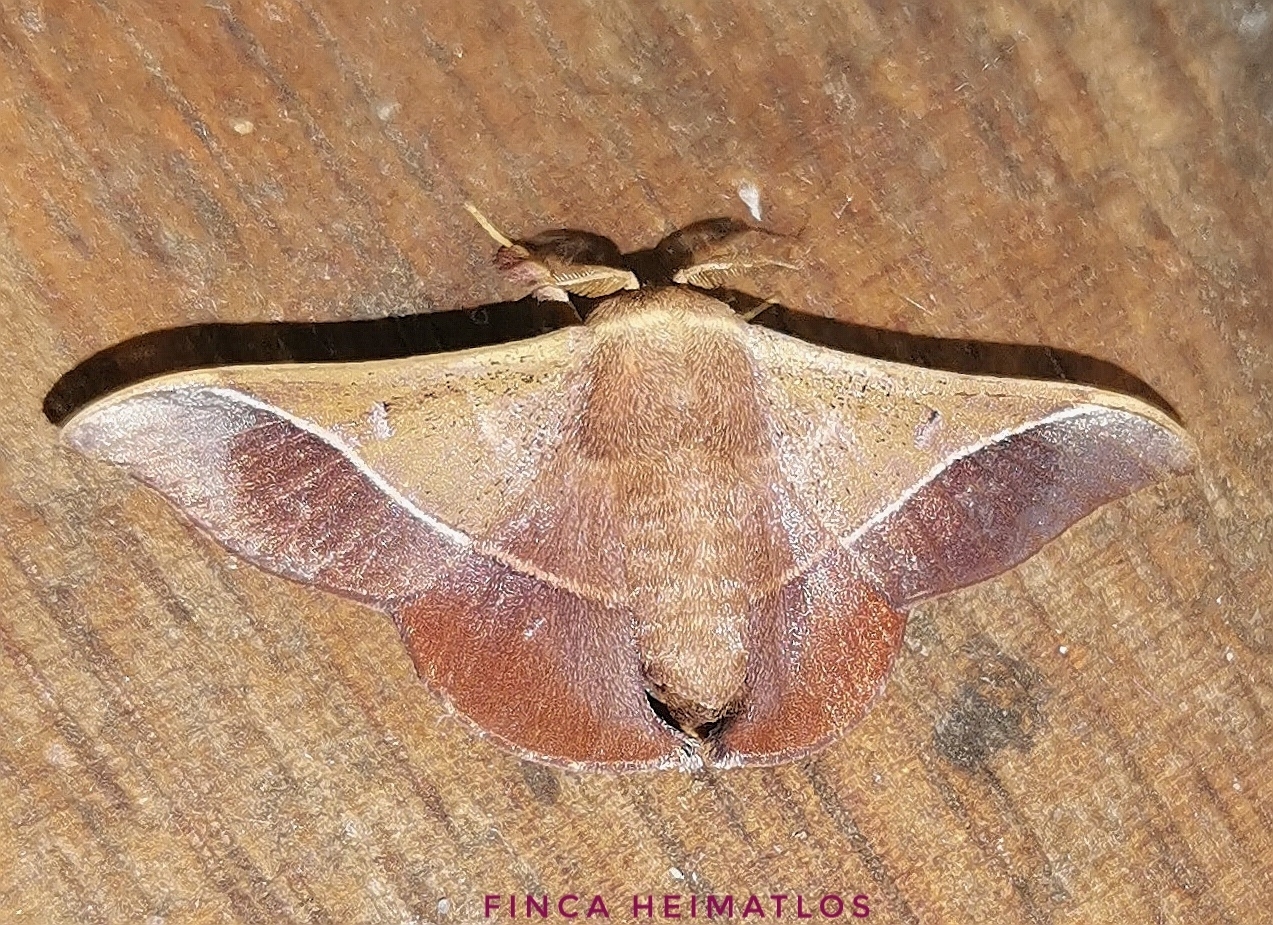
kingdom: Animalia
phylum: Arthropoda
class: Insecta
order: Lepidoptera
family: Mimallonidae
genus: Alheita
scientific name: Alheita caudina
